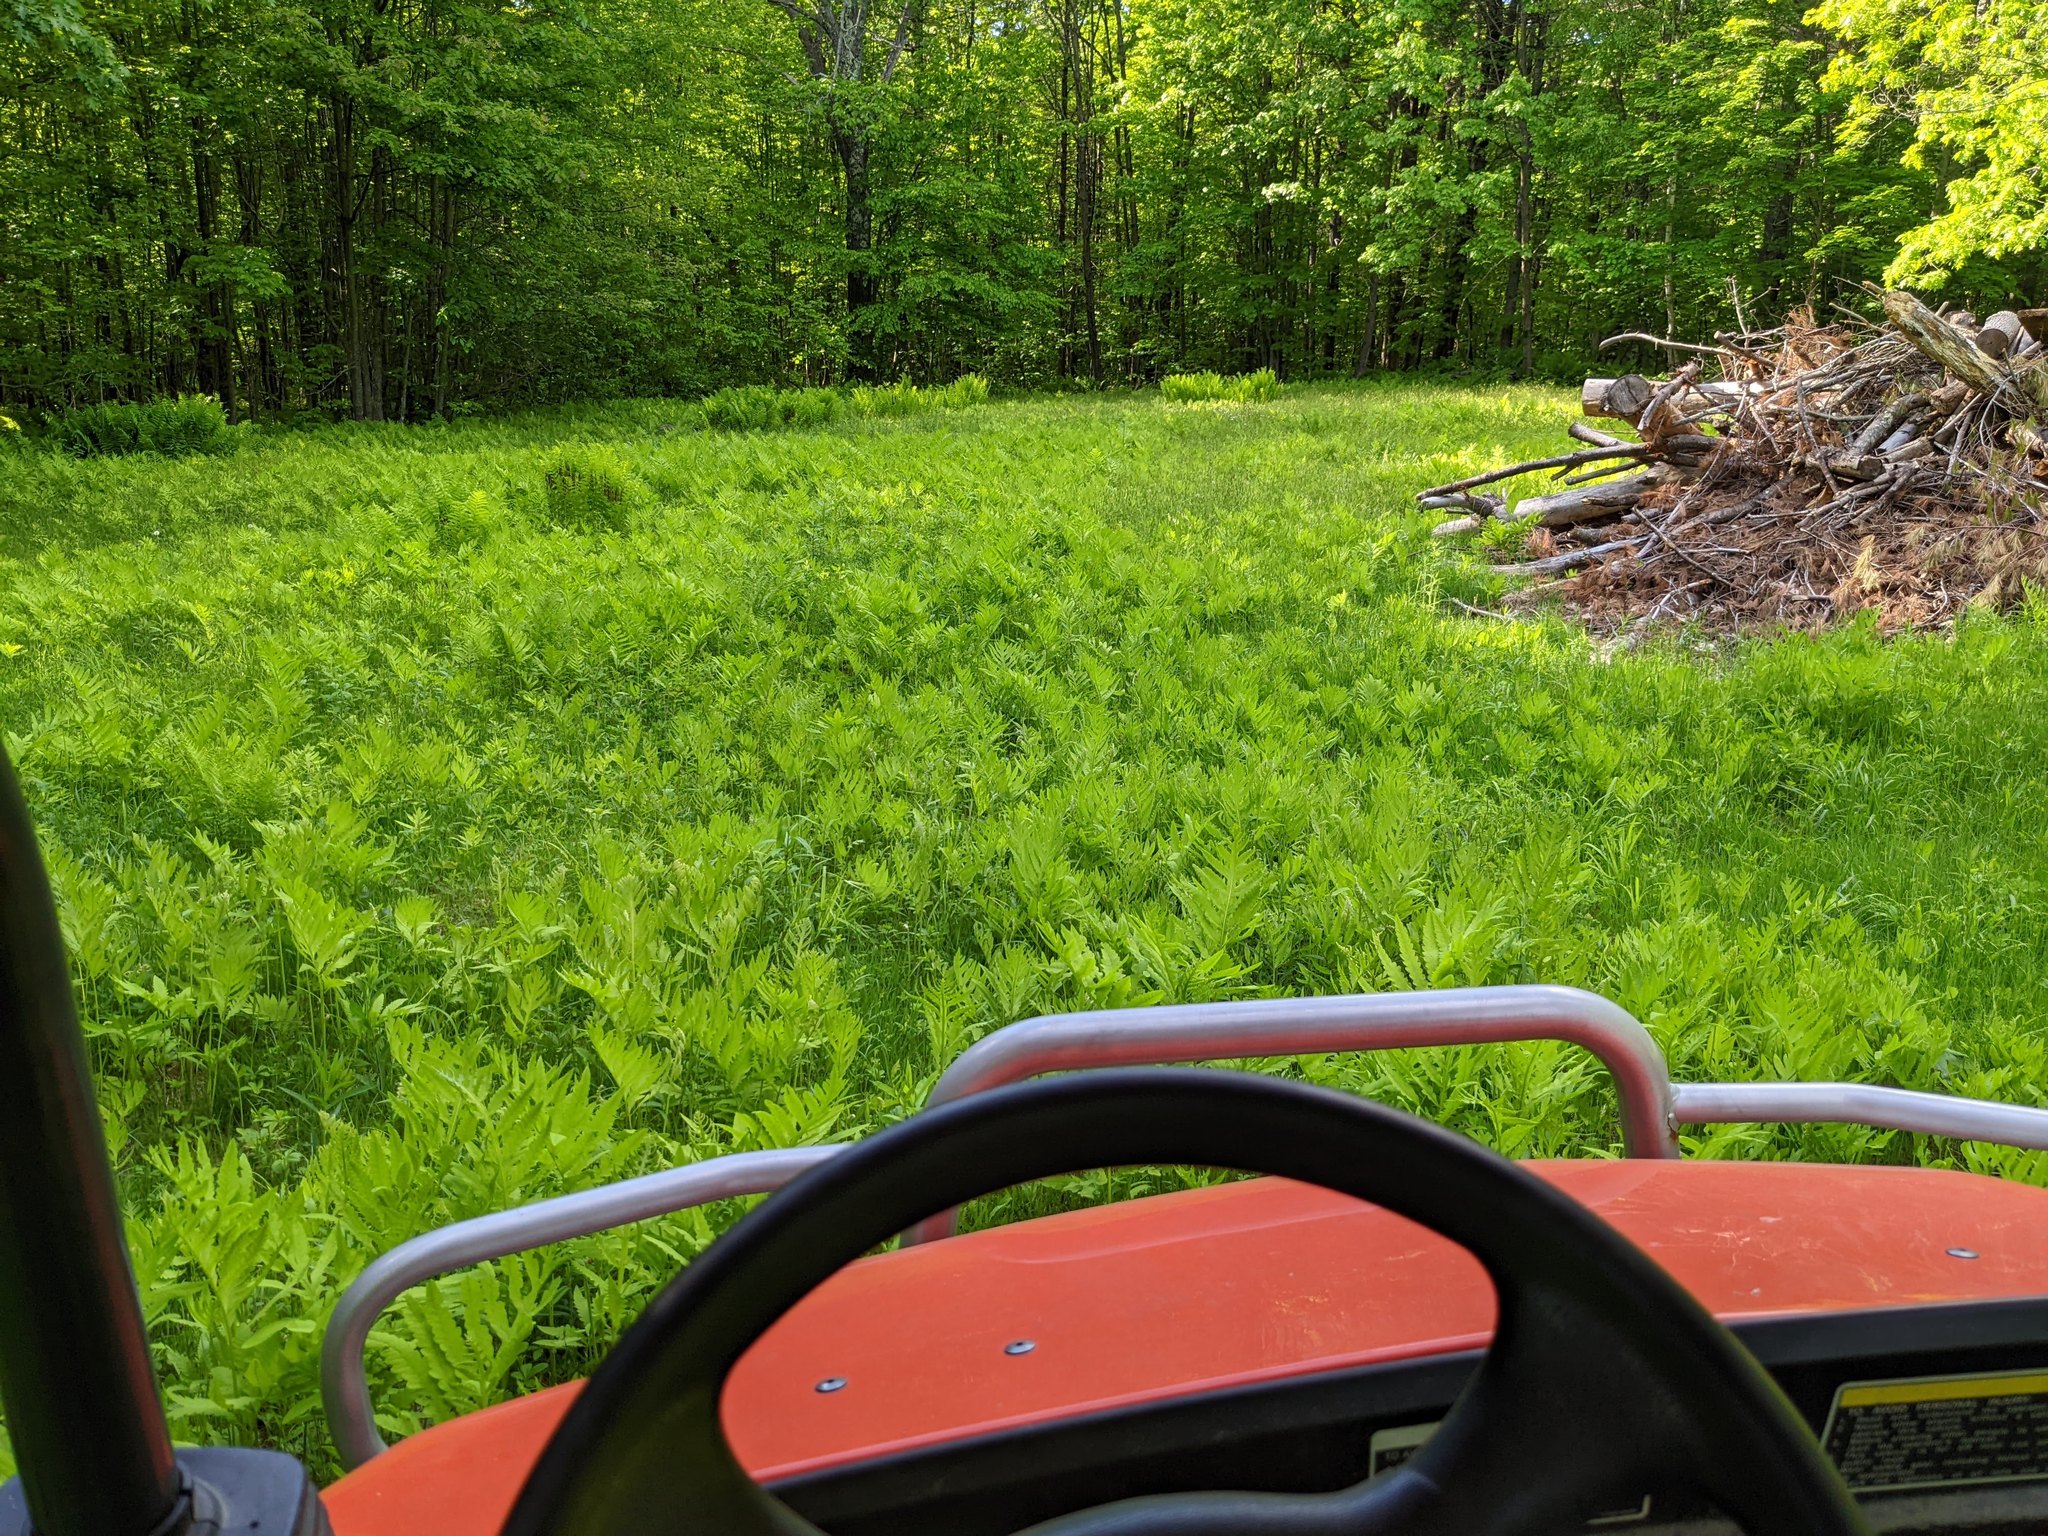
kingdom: Plantae
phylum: Tracheophyta
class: Polypodiopsida
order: Polypodiales
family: Onocleaceae
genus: Onoclea
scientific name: Onoclea sensibilis
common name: Sensitive fern
